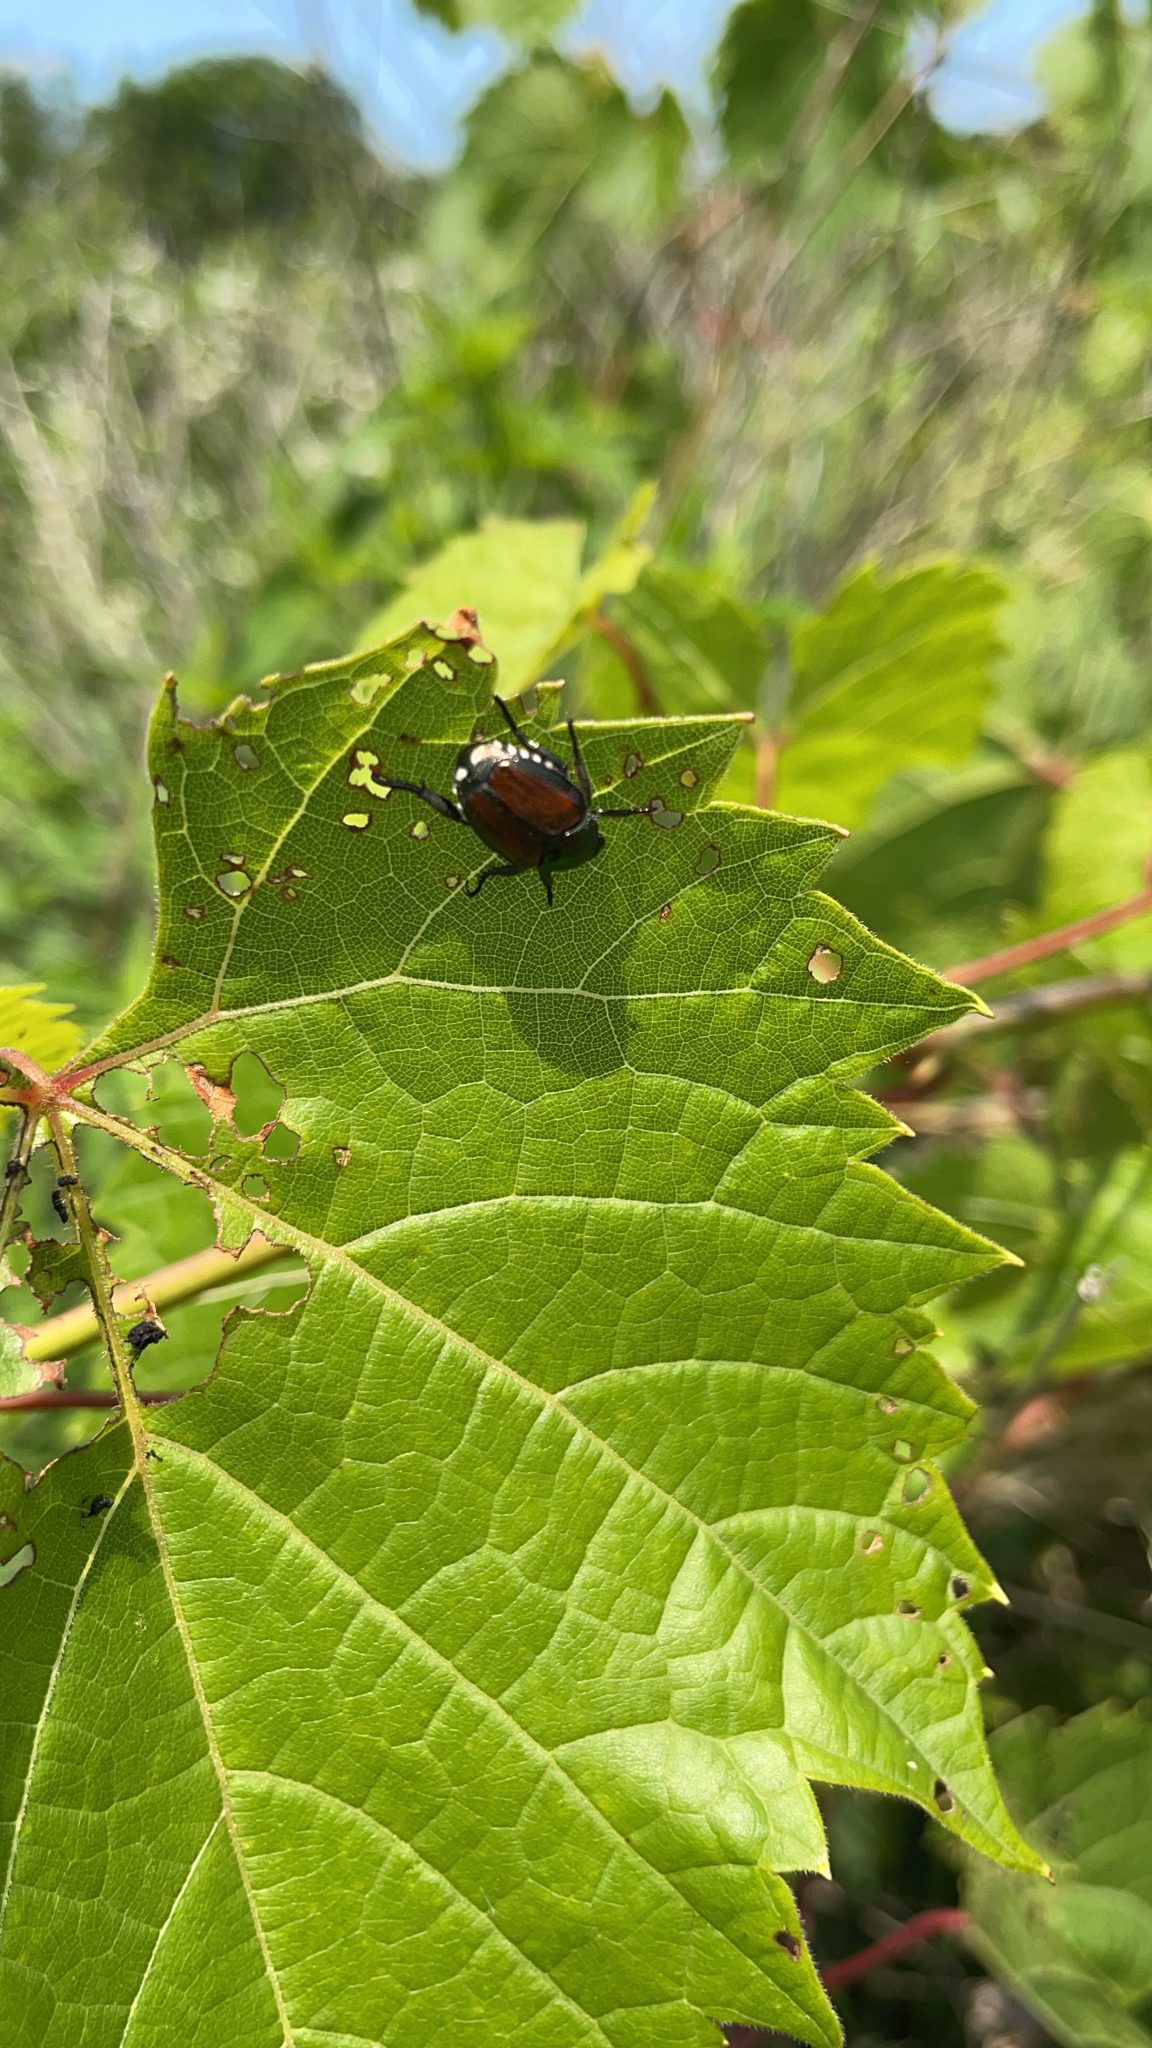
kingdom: Animalia
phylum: Arthropoda
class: Insecta
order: Coleoptera
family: Scarabaeidae
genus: Popillia
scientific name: Popillia japonica
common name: Japanese beetle
